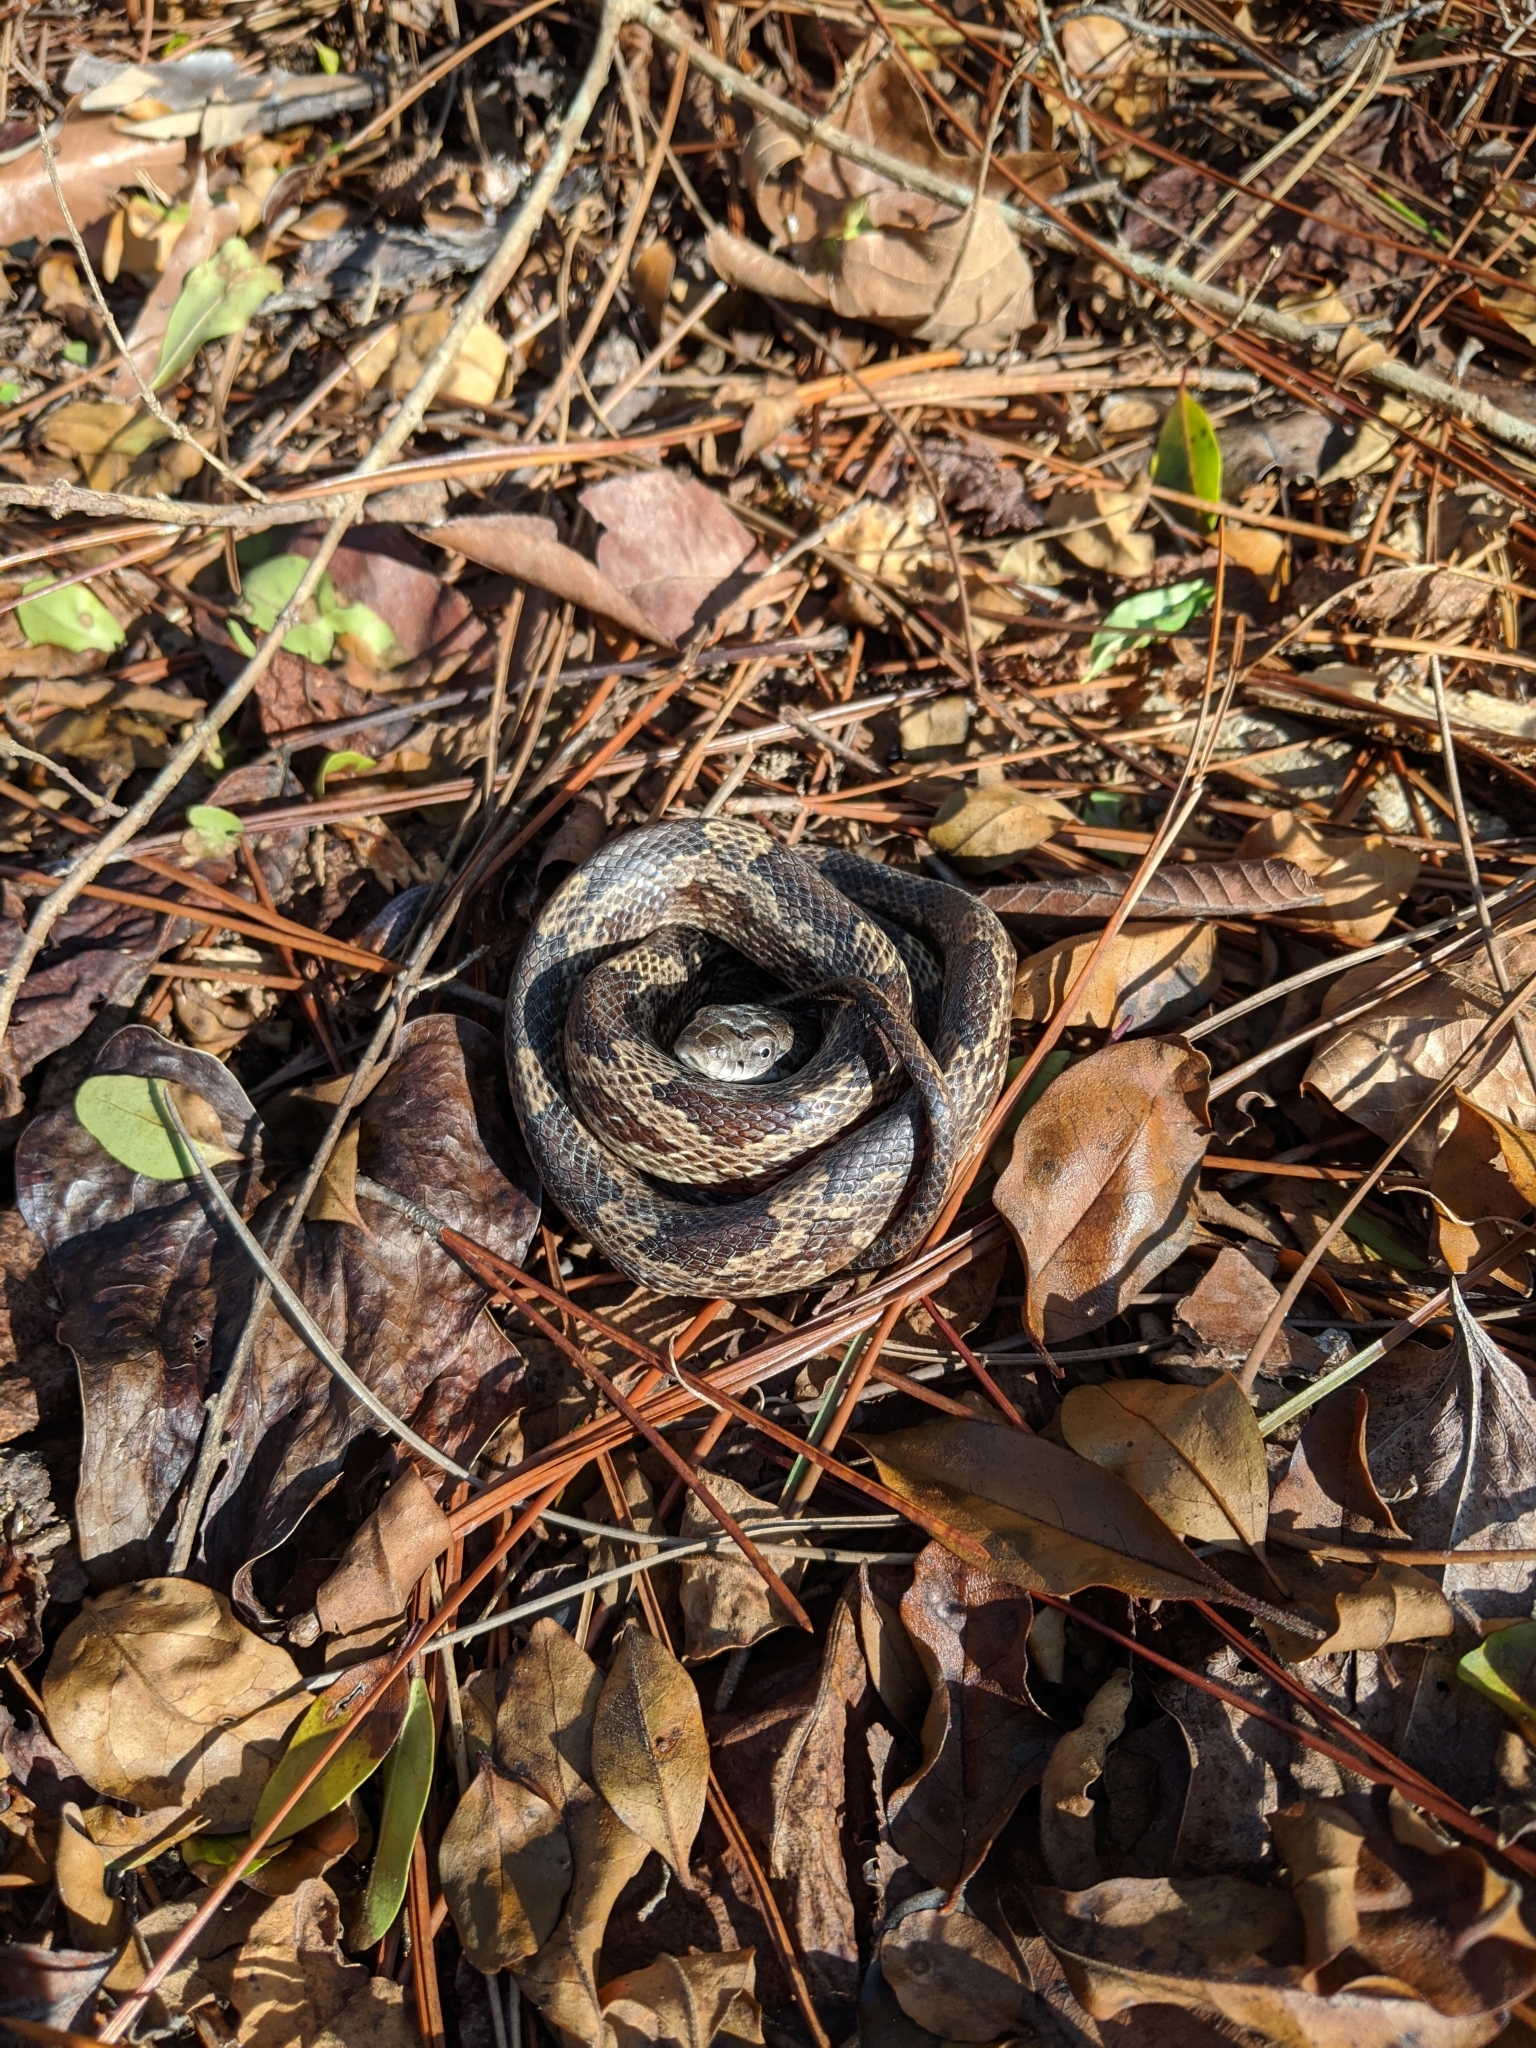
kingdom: Animalia
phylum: Chordata
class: Squamata
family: Colubridae
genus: Pantherophis
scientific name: Pantherophis spiloides
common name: Gray rat snake
